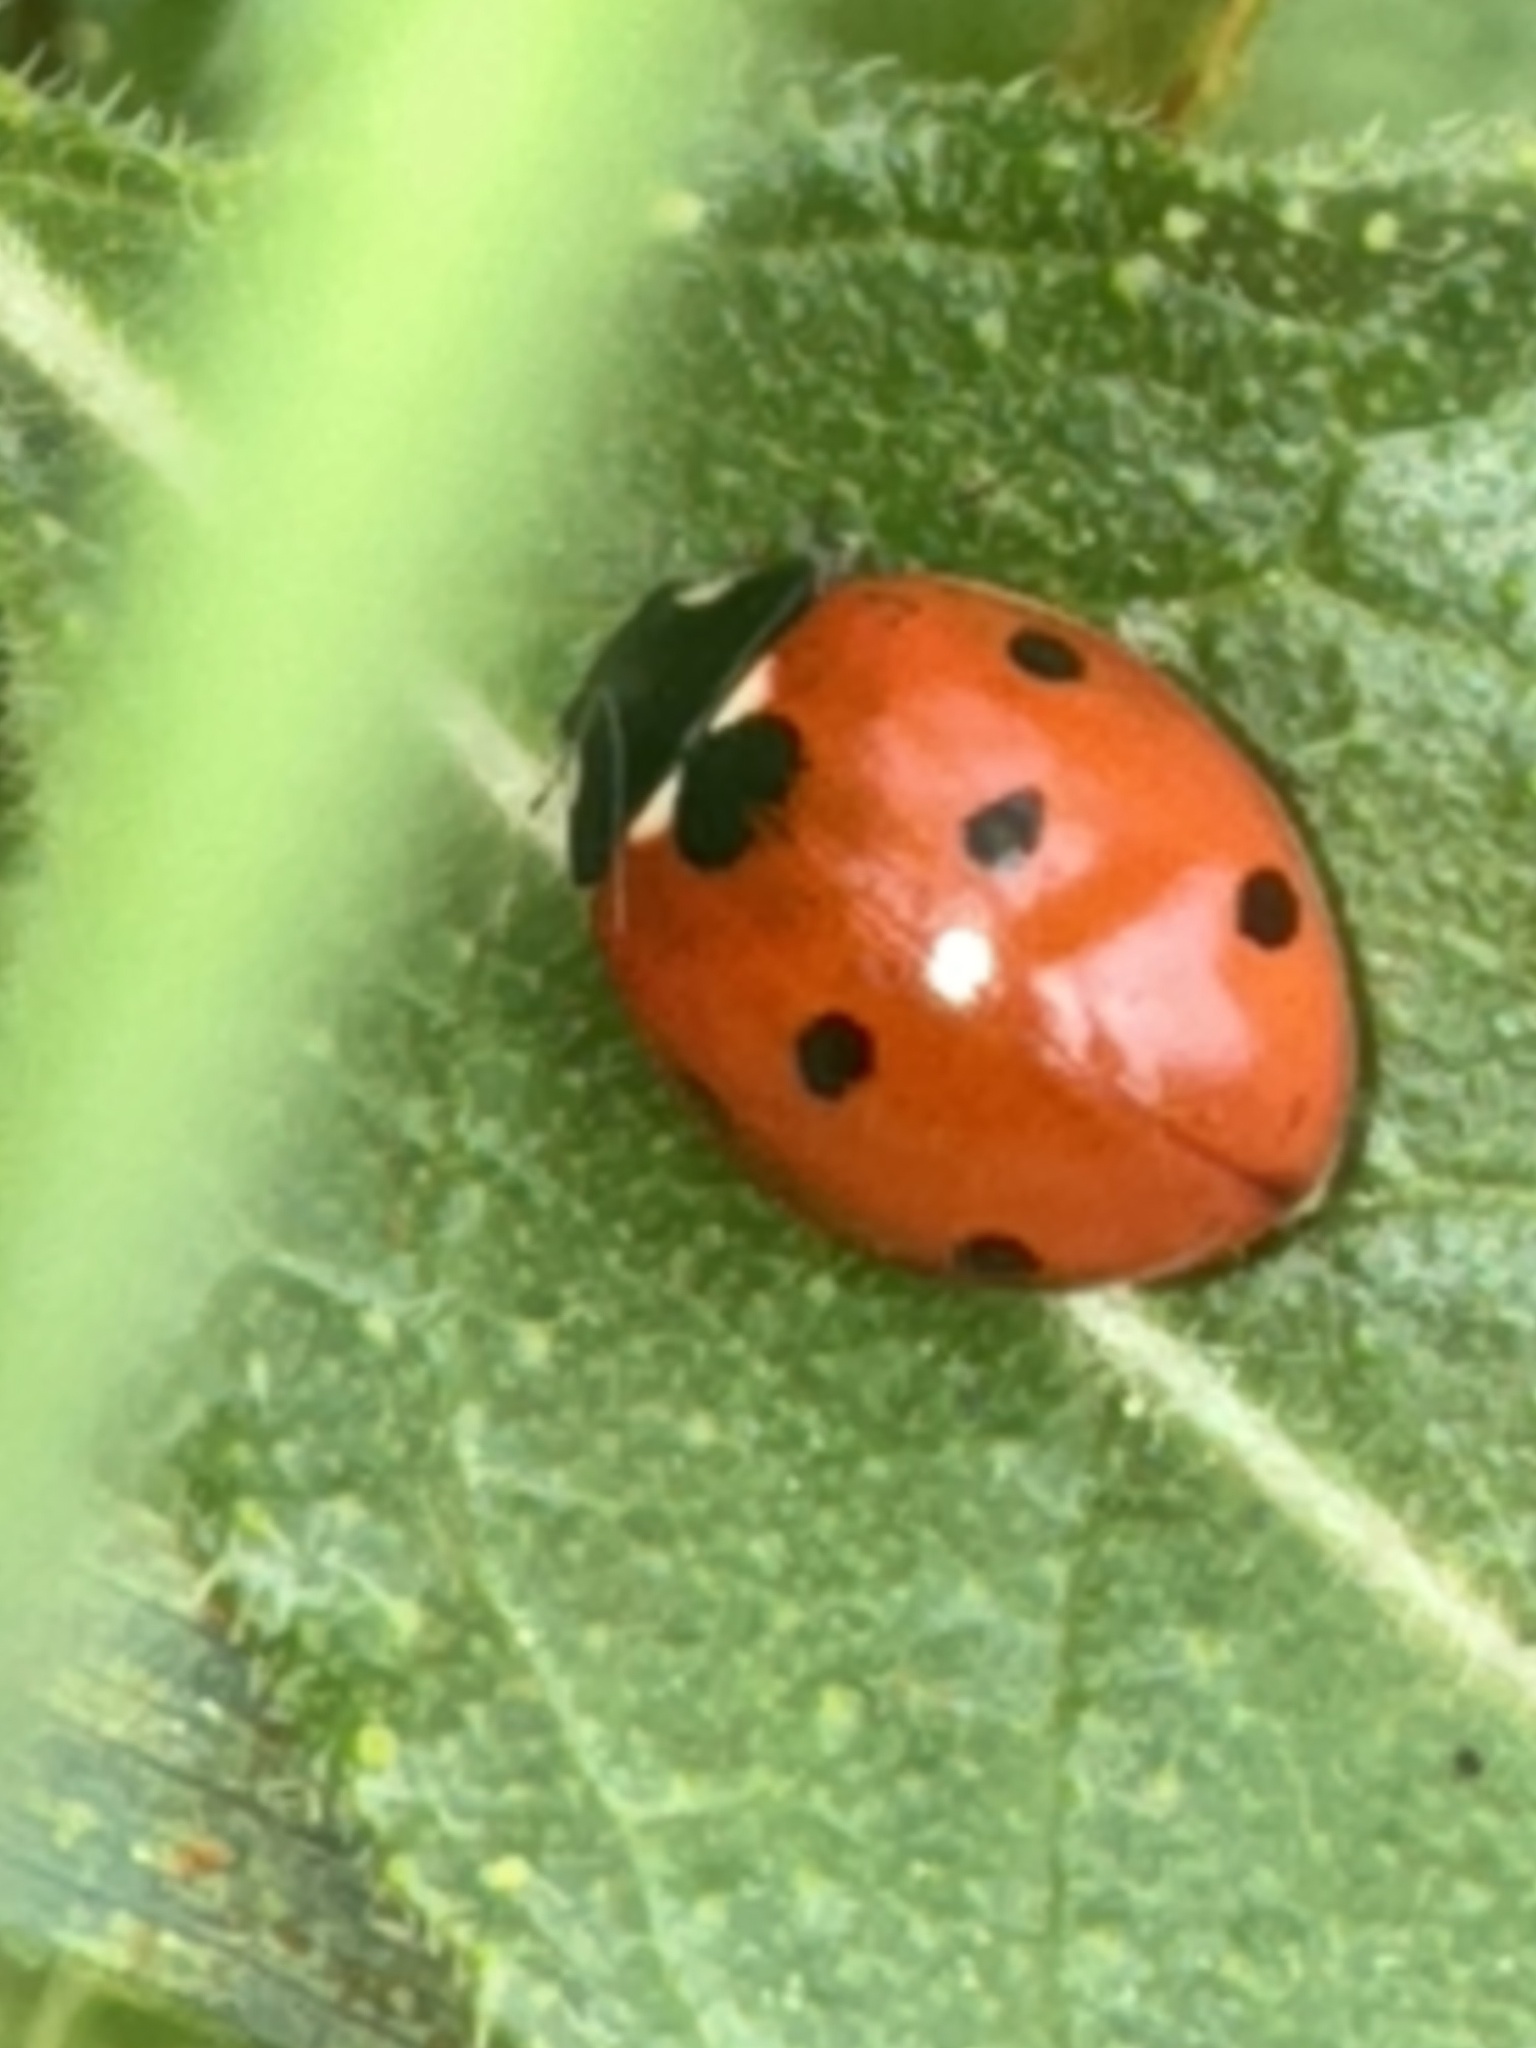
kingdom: Animalia
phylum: Arthropoda
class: Insecta
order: Coleoptera
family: Coccinellidae
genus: Coccinella
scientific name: Coccinella septempunctata
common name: Sevenspotted lady beetle
